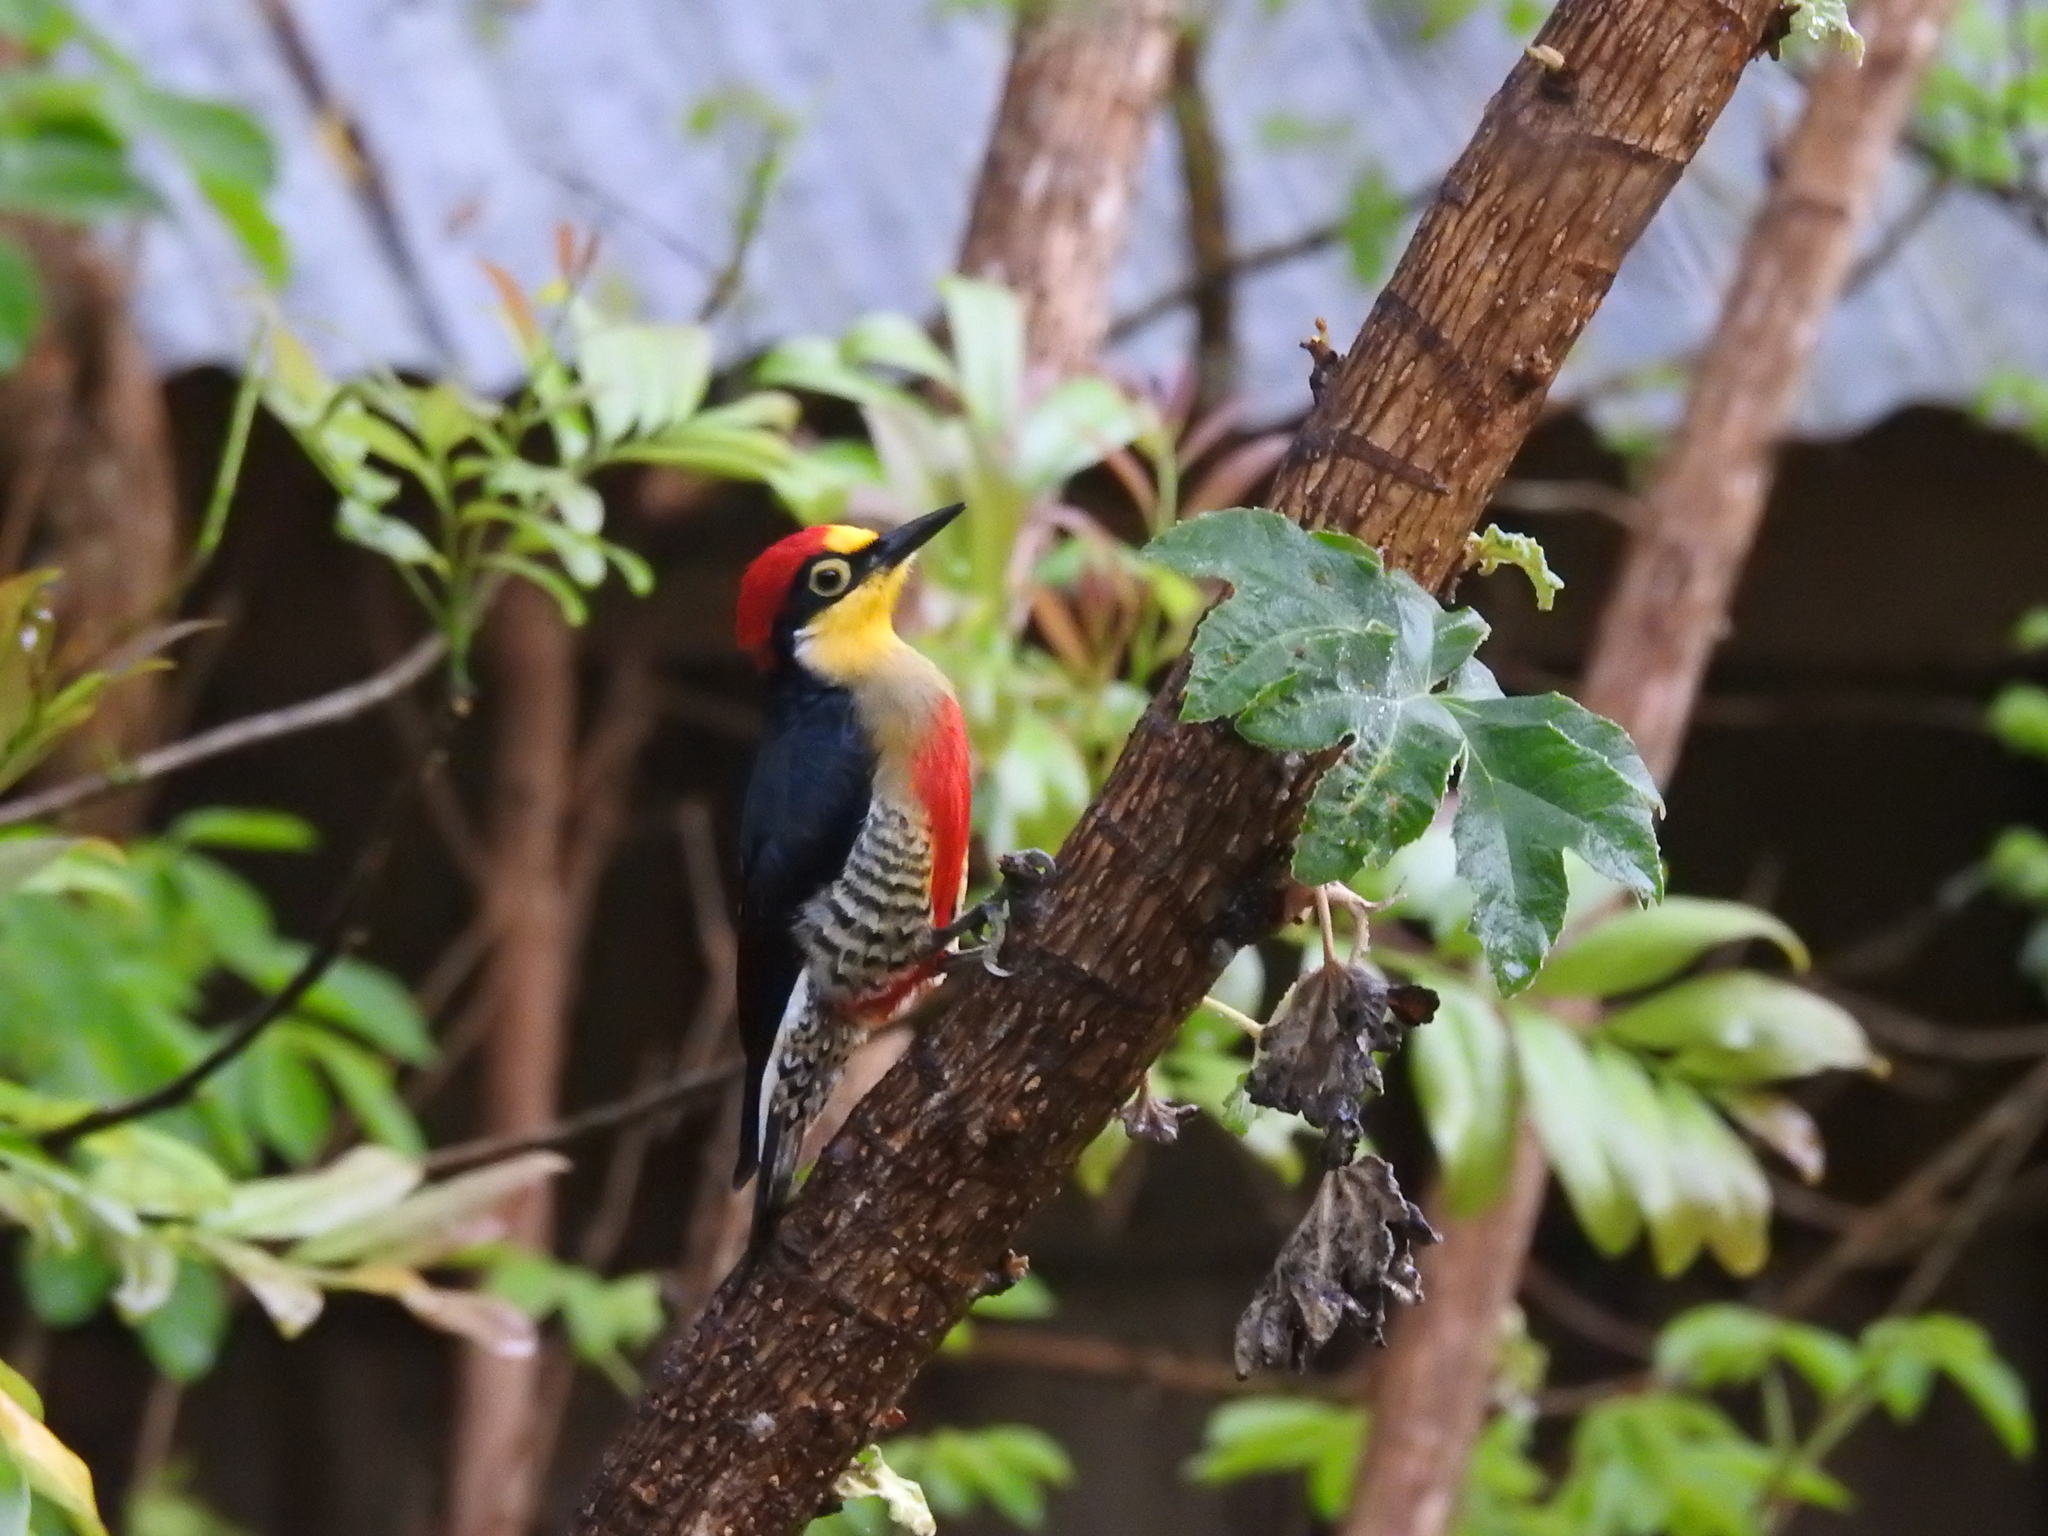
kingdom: Animalia
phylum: Chordata
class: Aves
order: Piciformes
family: Picidae
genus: Melanerpes
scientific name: Melanerpes flavifrons
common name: Yellow-fronted woodpecker
